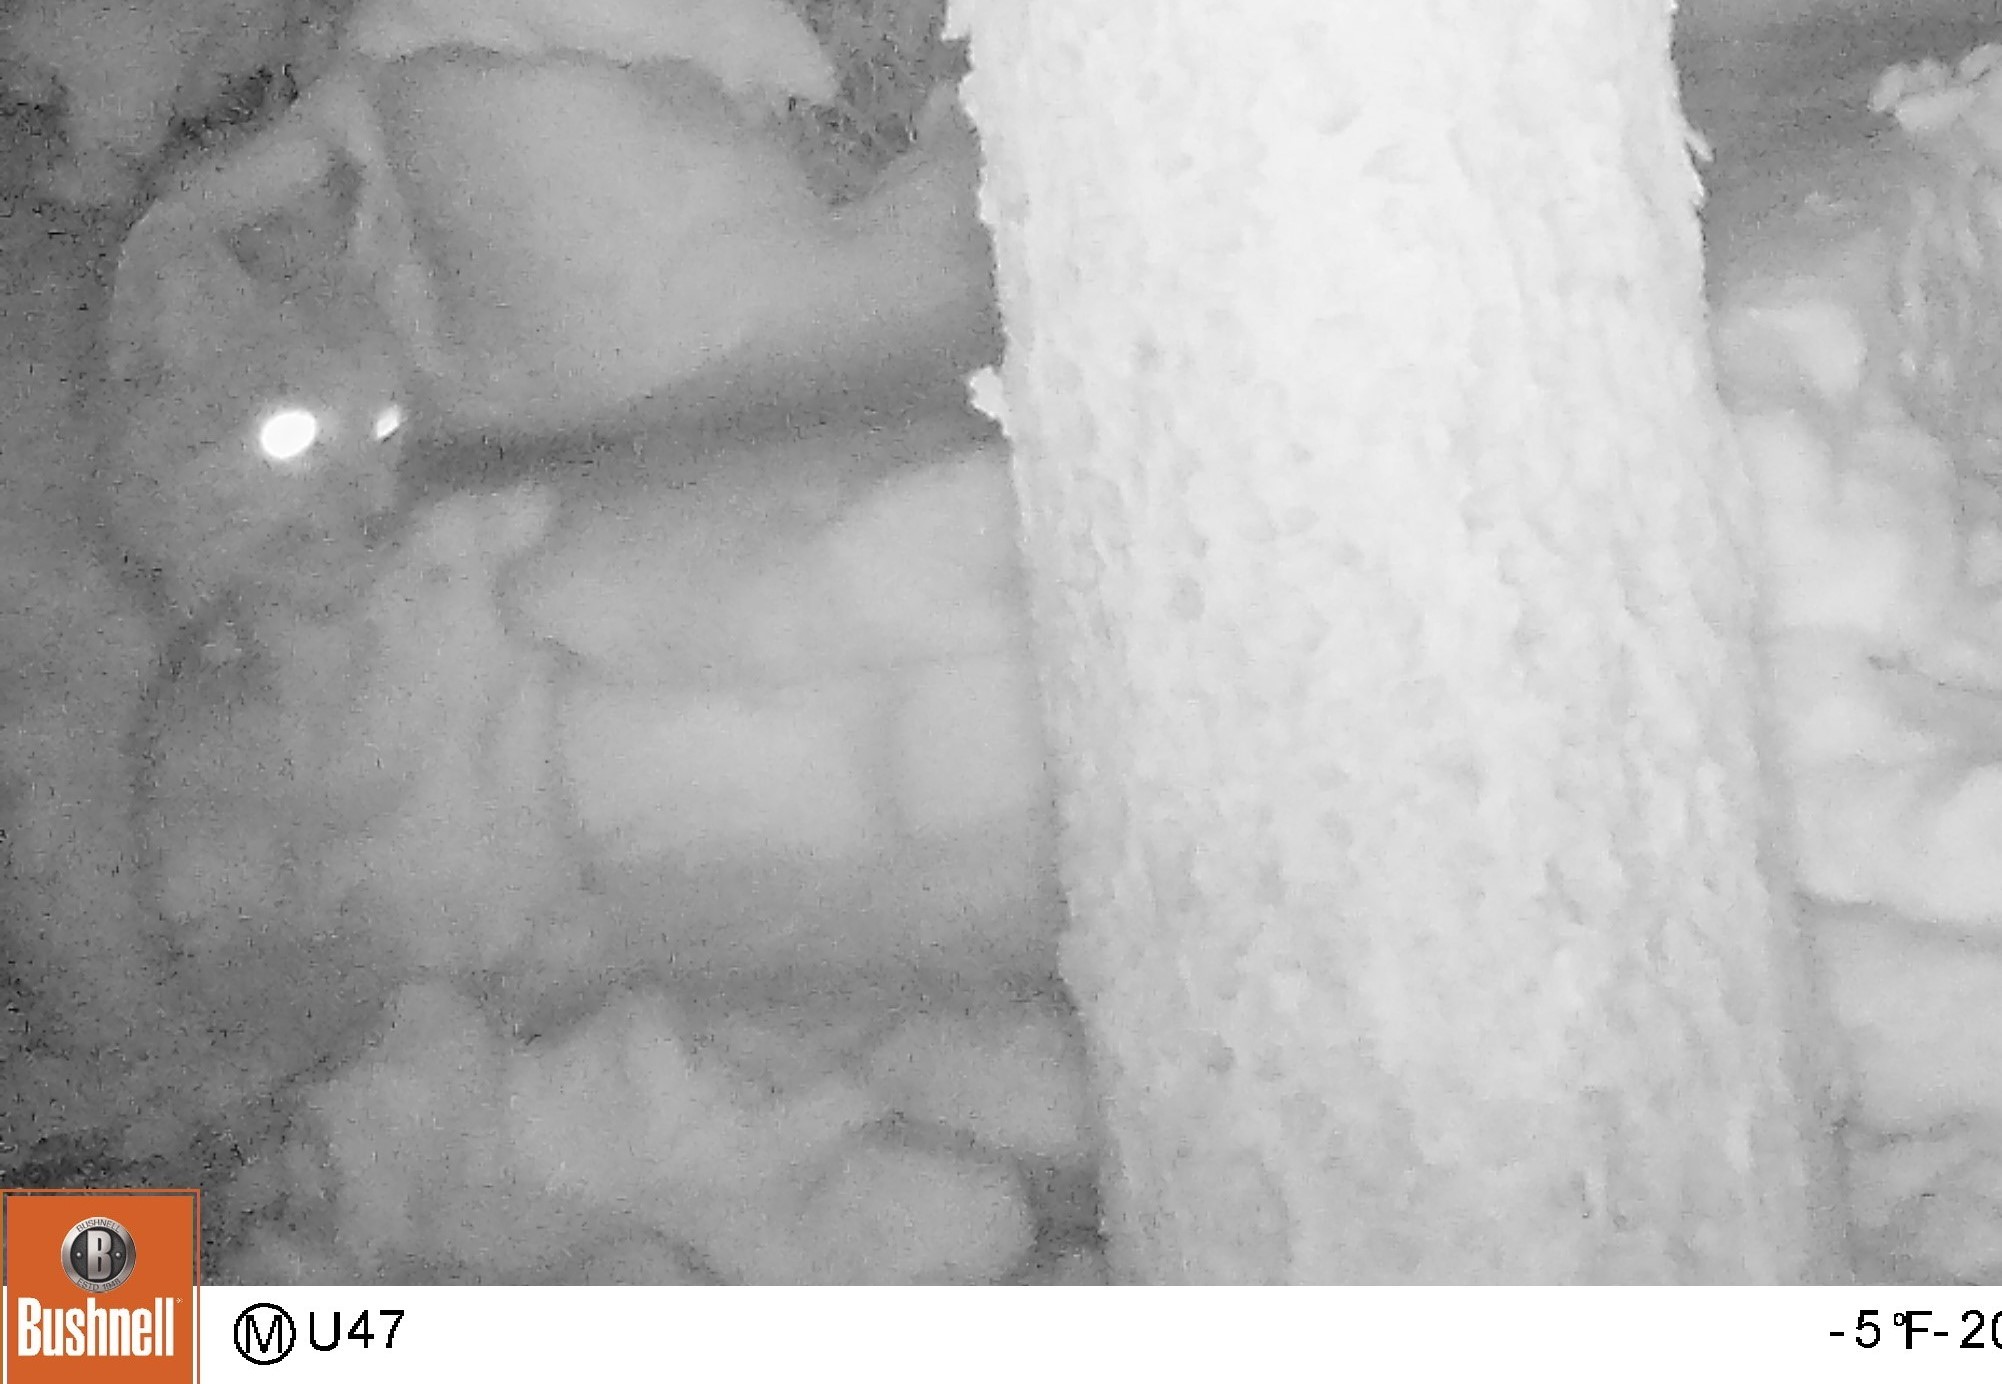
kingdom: Animalia
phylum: Chordata
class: Mammalia
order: Carnivora
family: Felidae
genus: Lynx
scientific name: Lynx canadensis
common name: Canadian lynx
